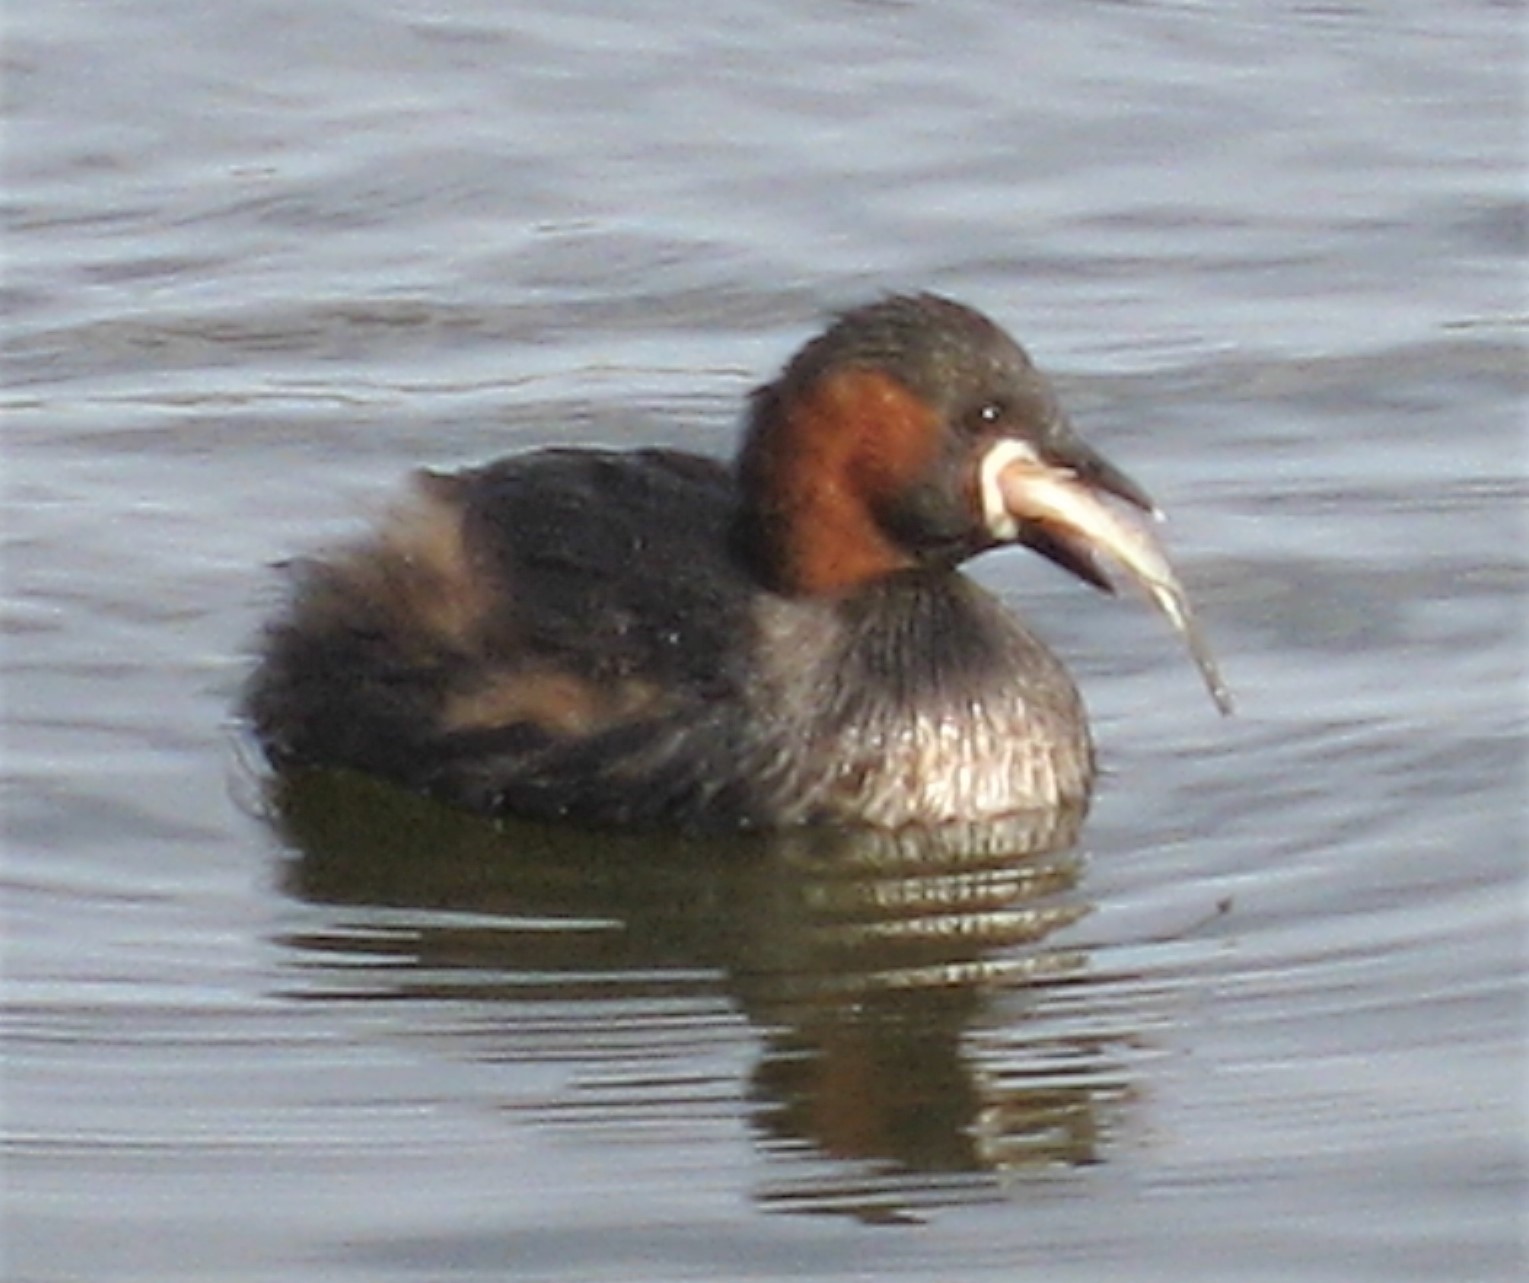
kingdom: Animalia
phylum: Chordata
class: Aves
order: Podicipediformes
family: Podicipedidae
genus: Tachybaptus
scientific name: Tachybaptus ruficollis
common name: Little grebe
